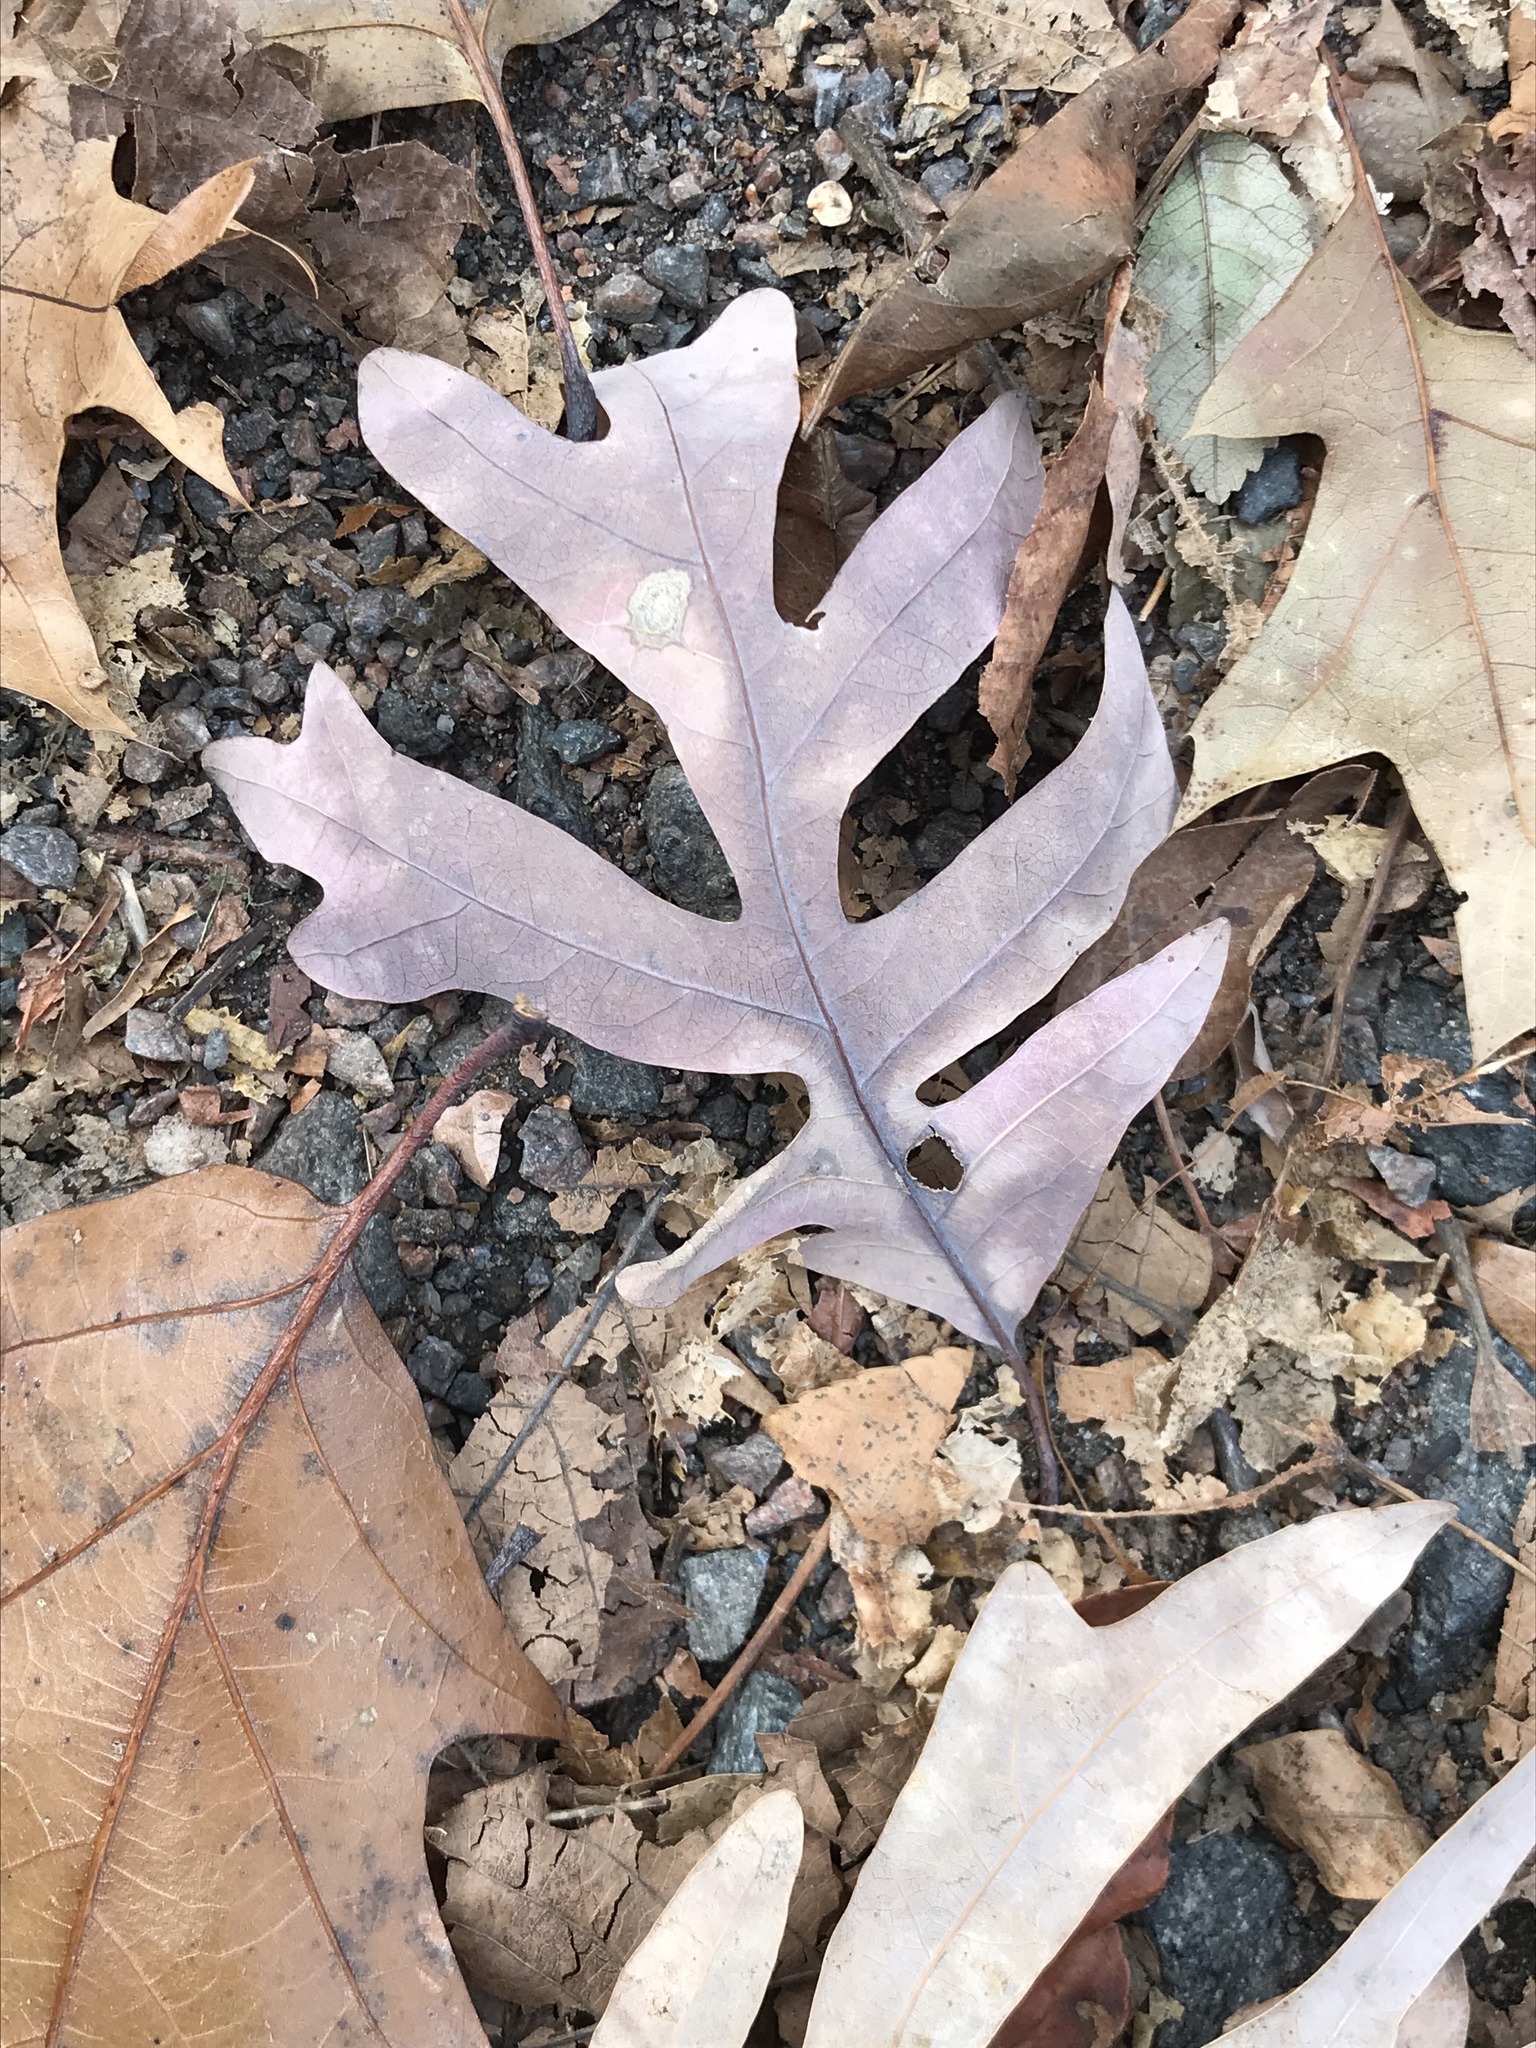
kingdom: Plantae
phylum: Tracheophyta
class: Magnoliopsida
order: Fagales
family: Fagaceae
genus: Quercus
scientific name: Quercus alba
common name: White oak
